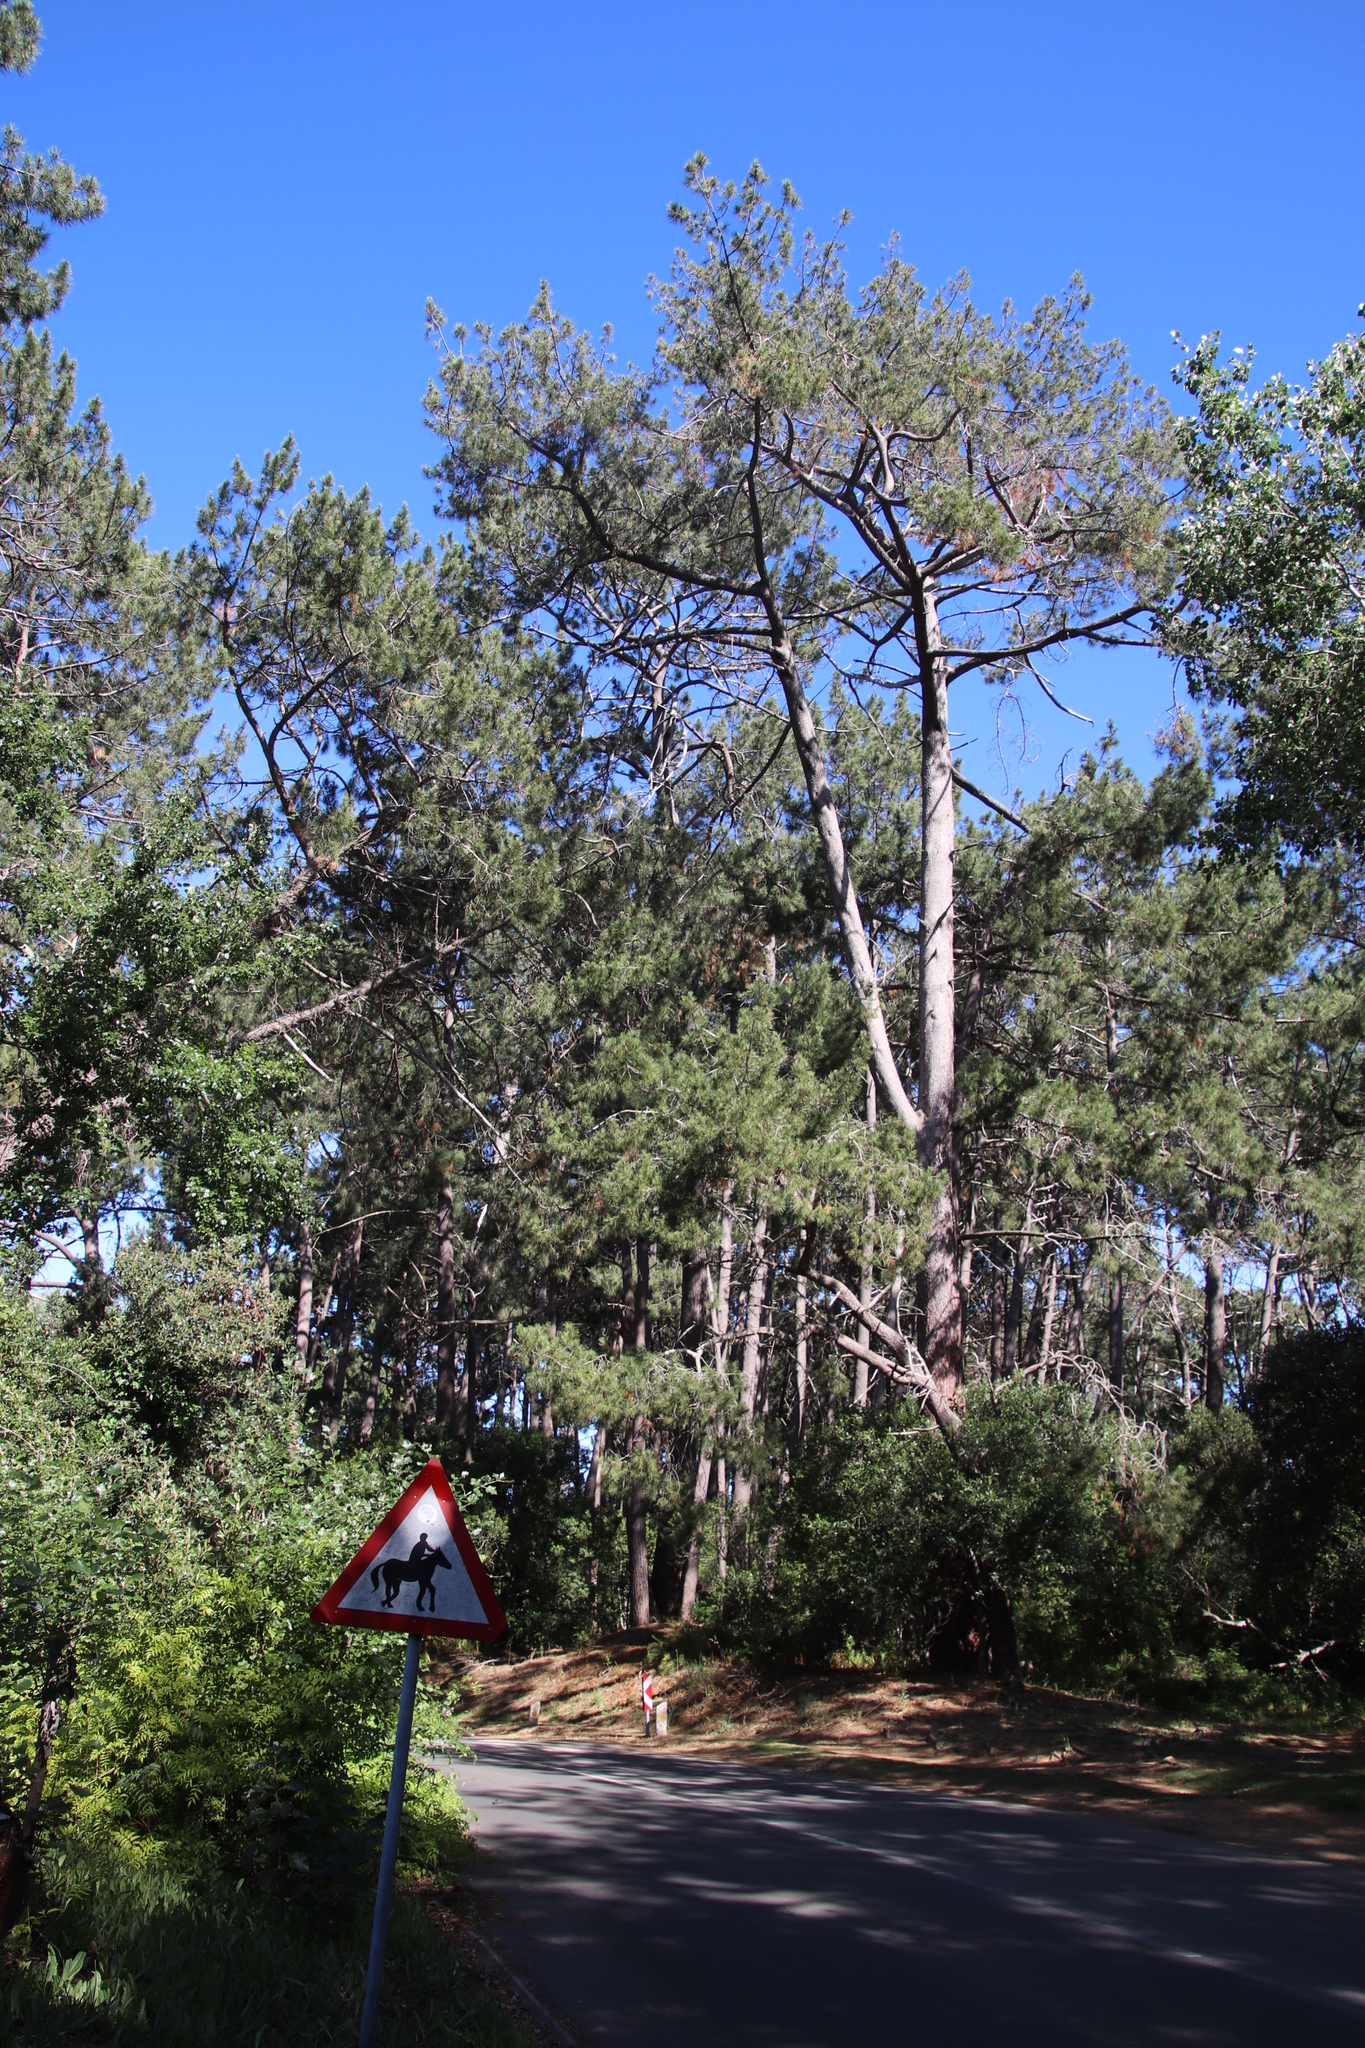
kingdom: Plantae
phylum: Tracheophyta
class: Pinopsida
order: Pinales
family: Pinaceae
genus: Pinus
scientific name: Pinus pinaster
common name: Maritime pine
